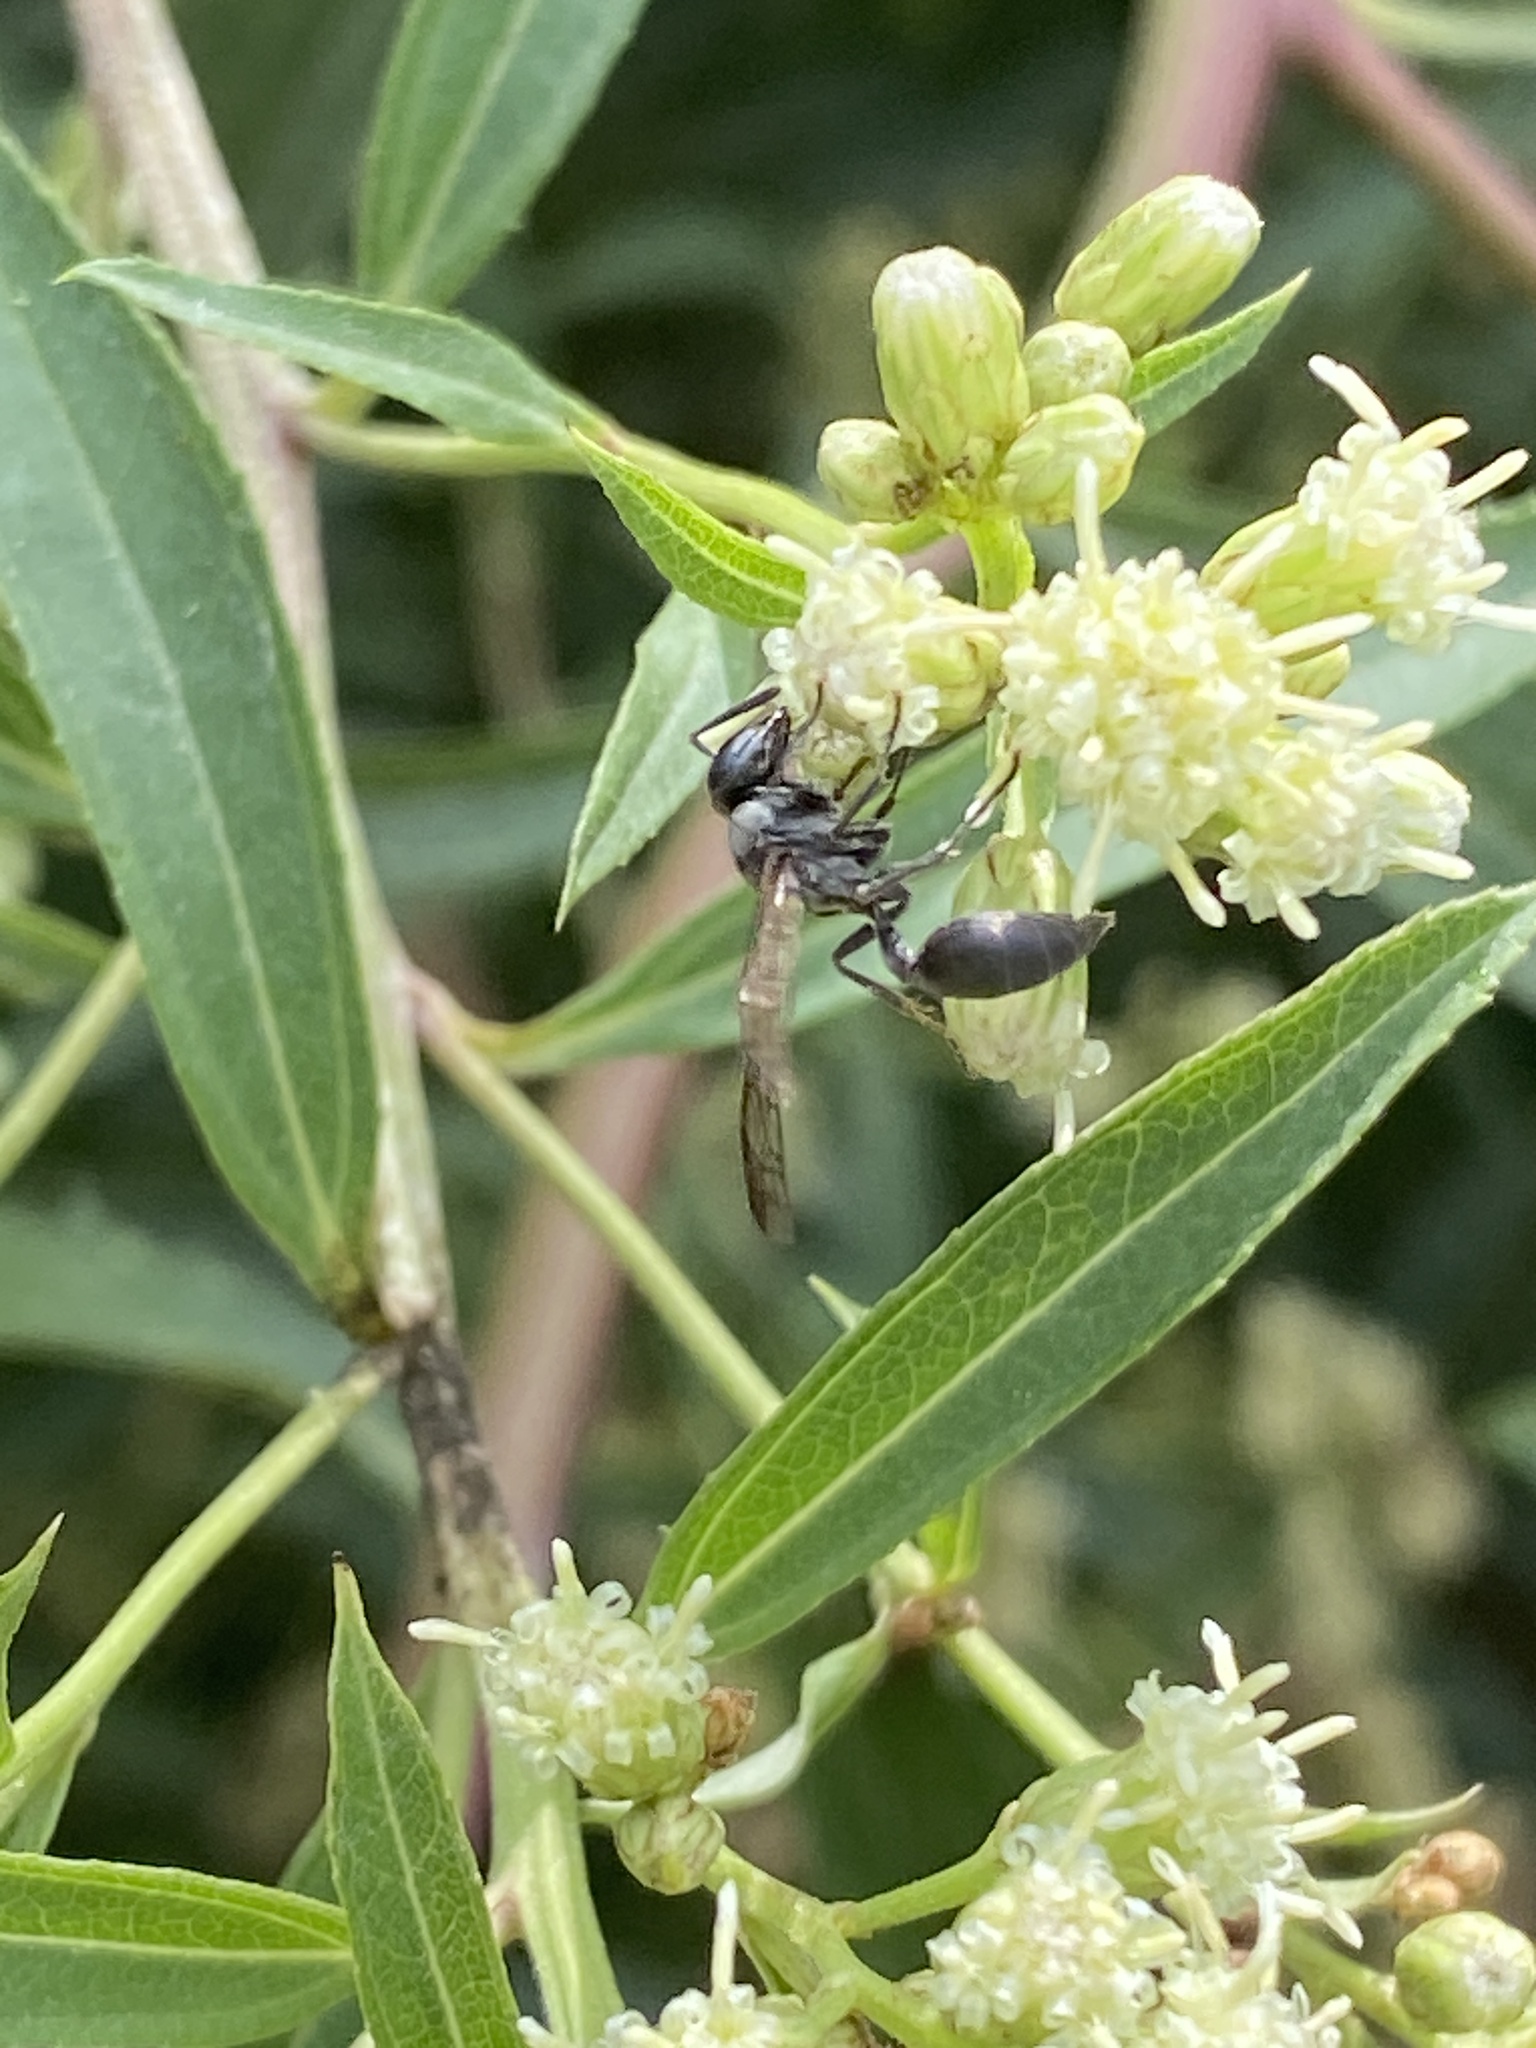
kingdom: Animalia
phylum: Arthropoda
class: Insecta
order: Hymenoptera
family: Eumenidae
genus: Polybia
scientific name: Polybia scutellaris
